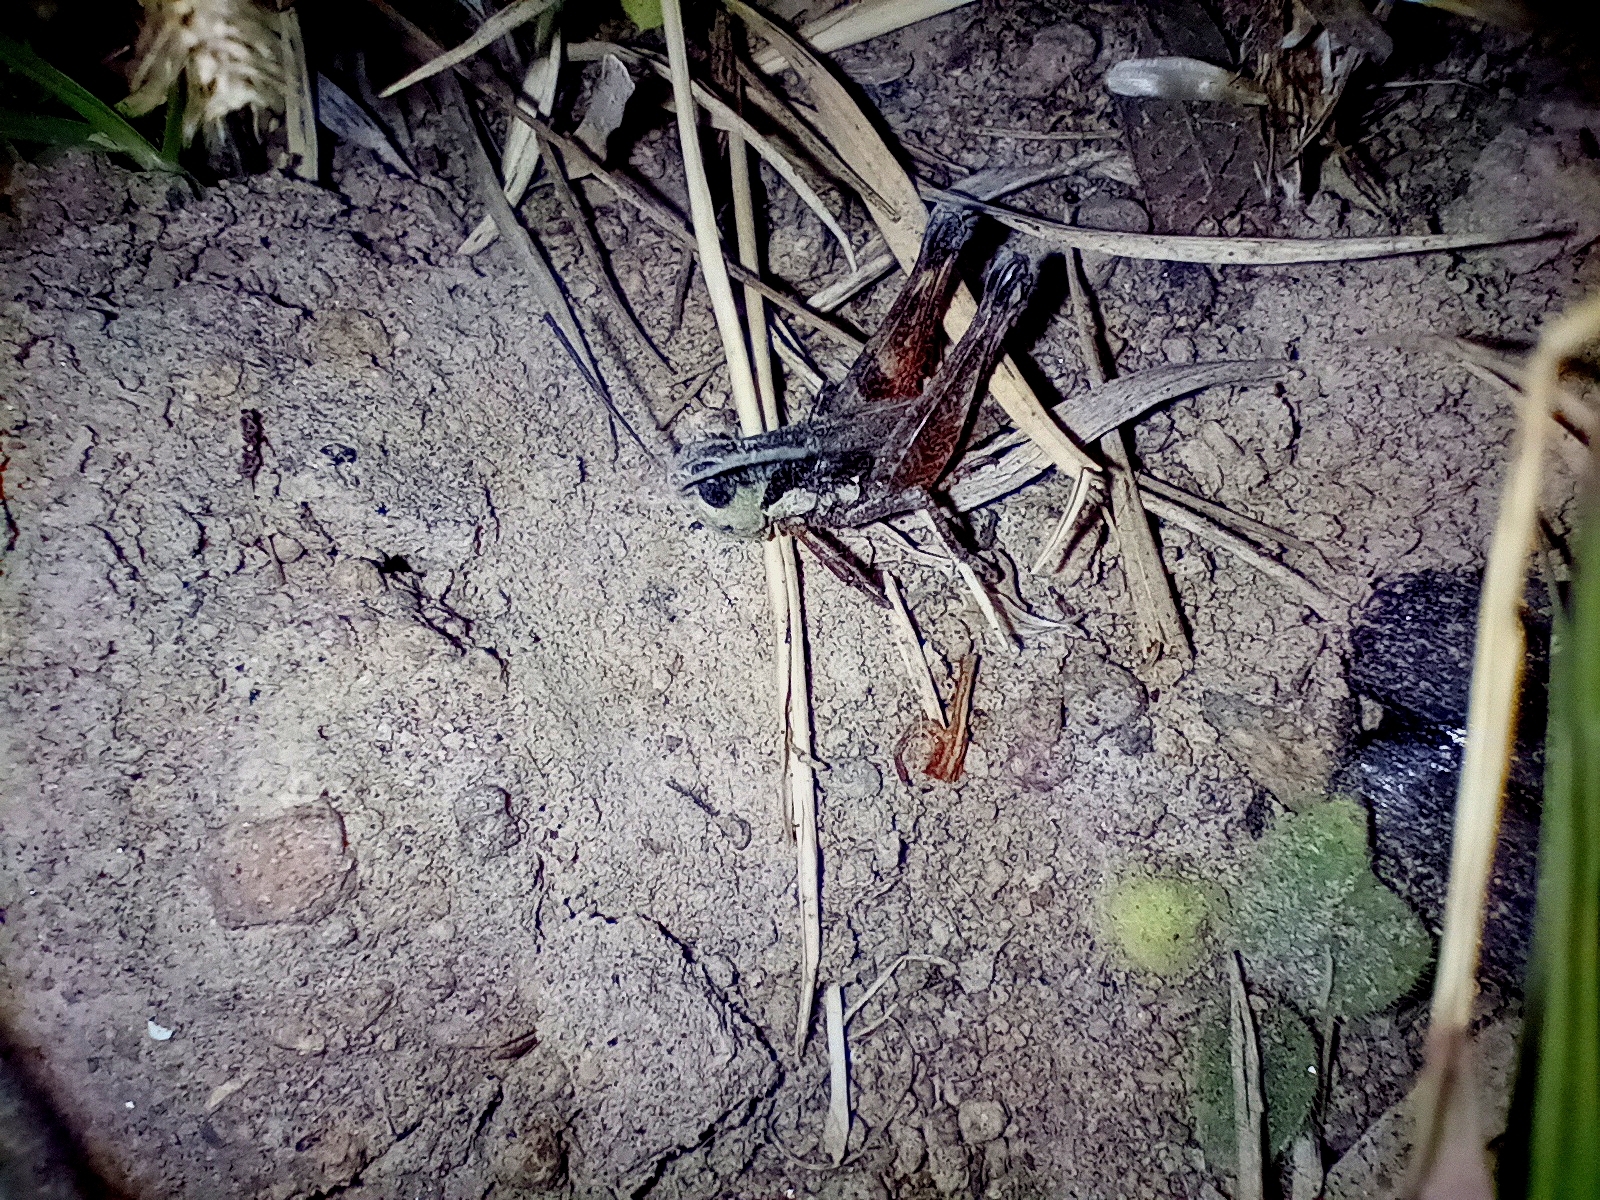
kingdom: Animalia
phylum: Arthropoda
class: Insecta
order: Orthoptera
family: Acrididae
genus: Boopedon
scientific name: Boopedon rufipes
